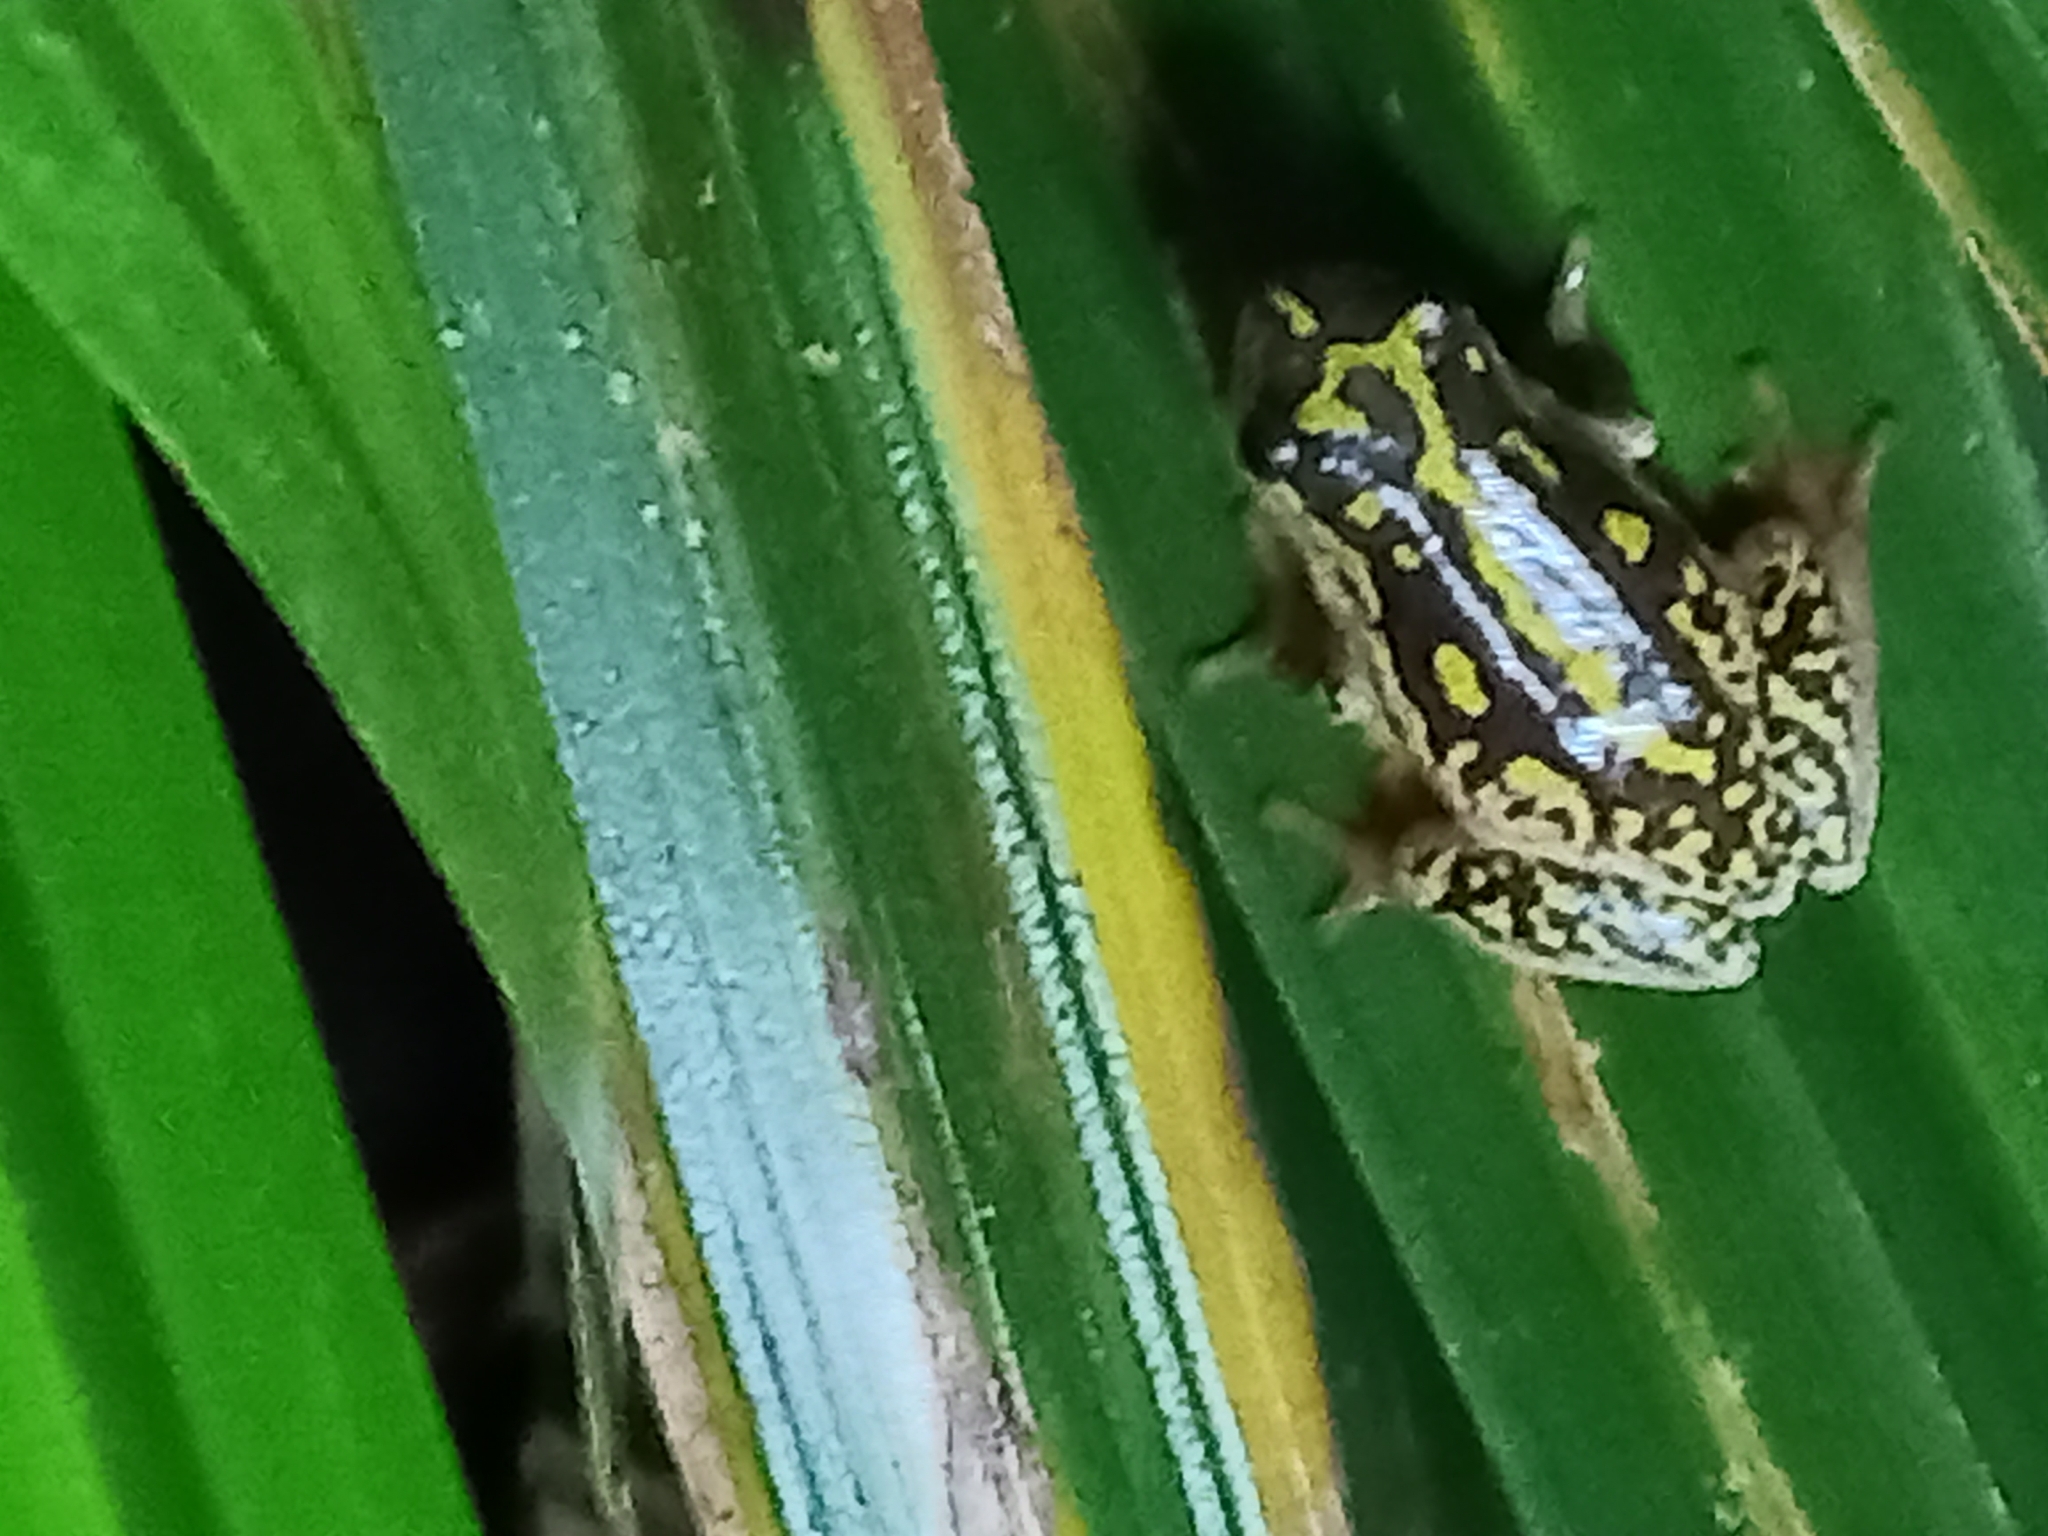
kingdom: Animalia
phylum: Chordata
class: Amphibia
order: Anura
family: Hyperoliidae
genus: Hyperolius
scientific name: Hyperolius marmoratus
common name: Painted reed frog
